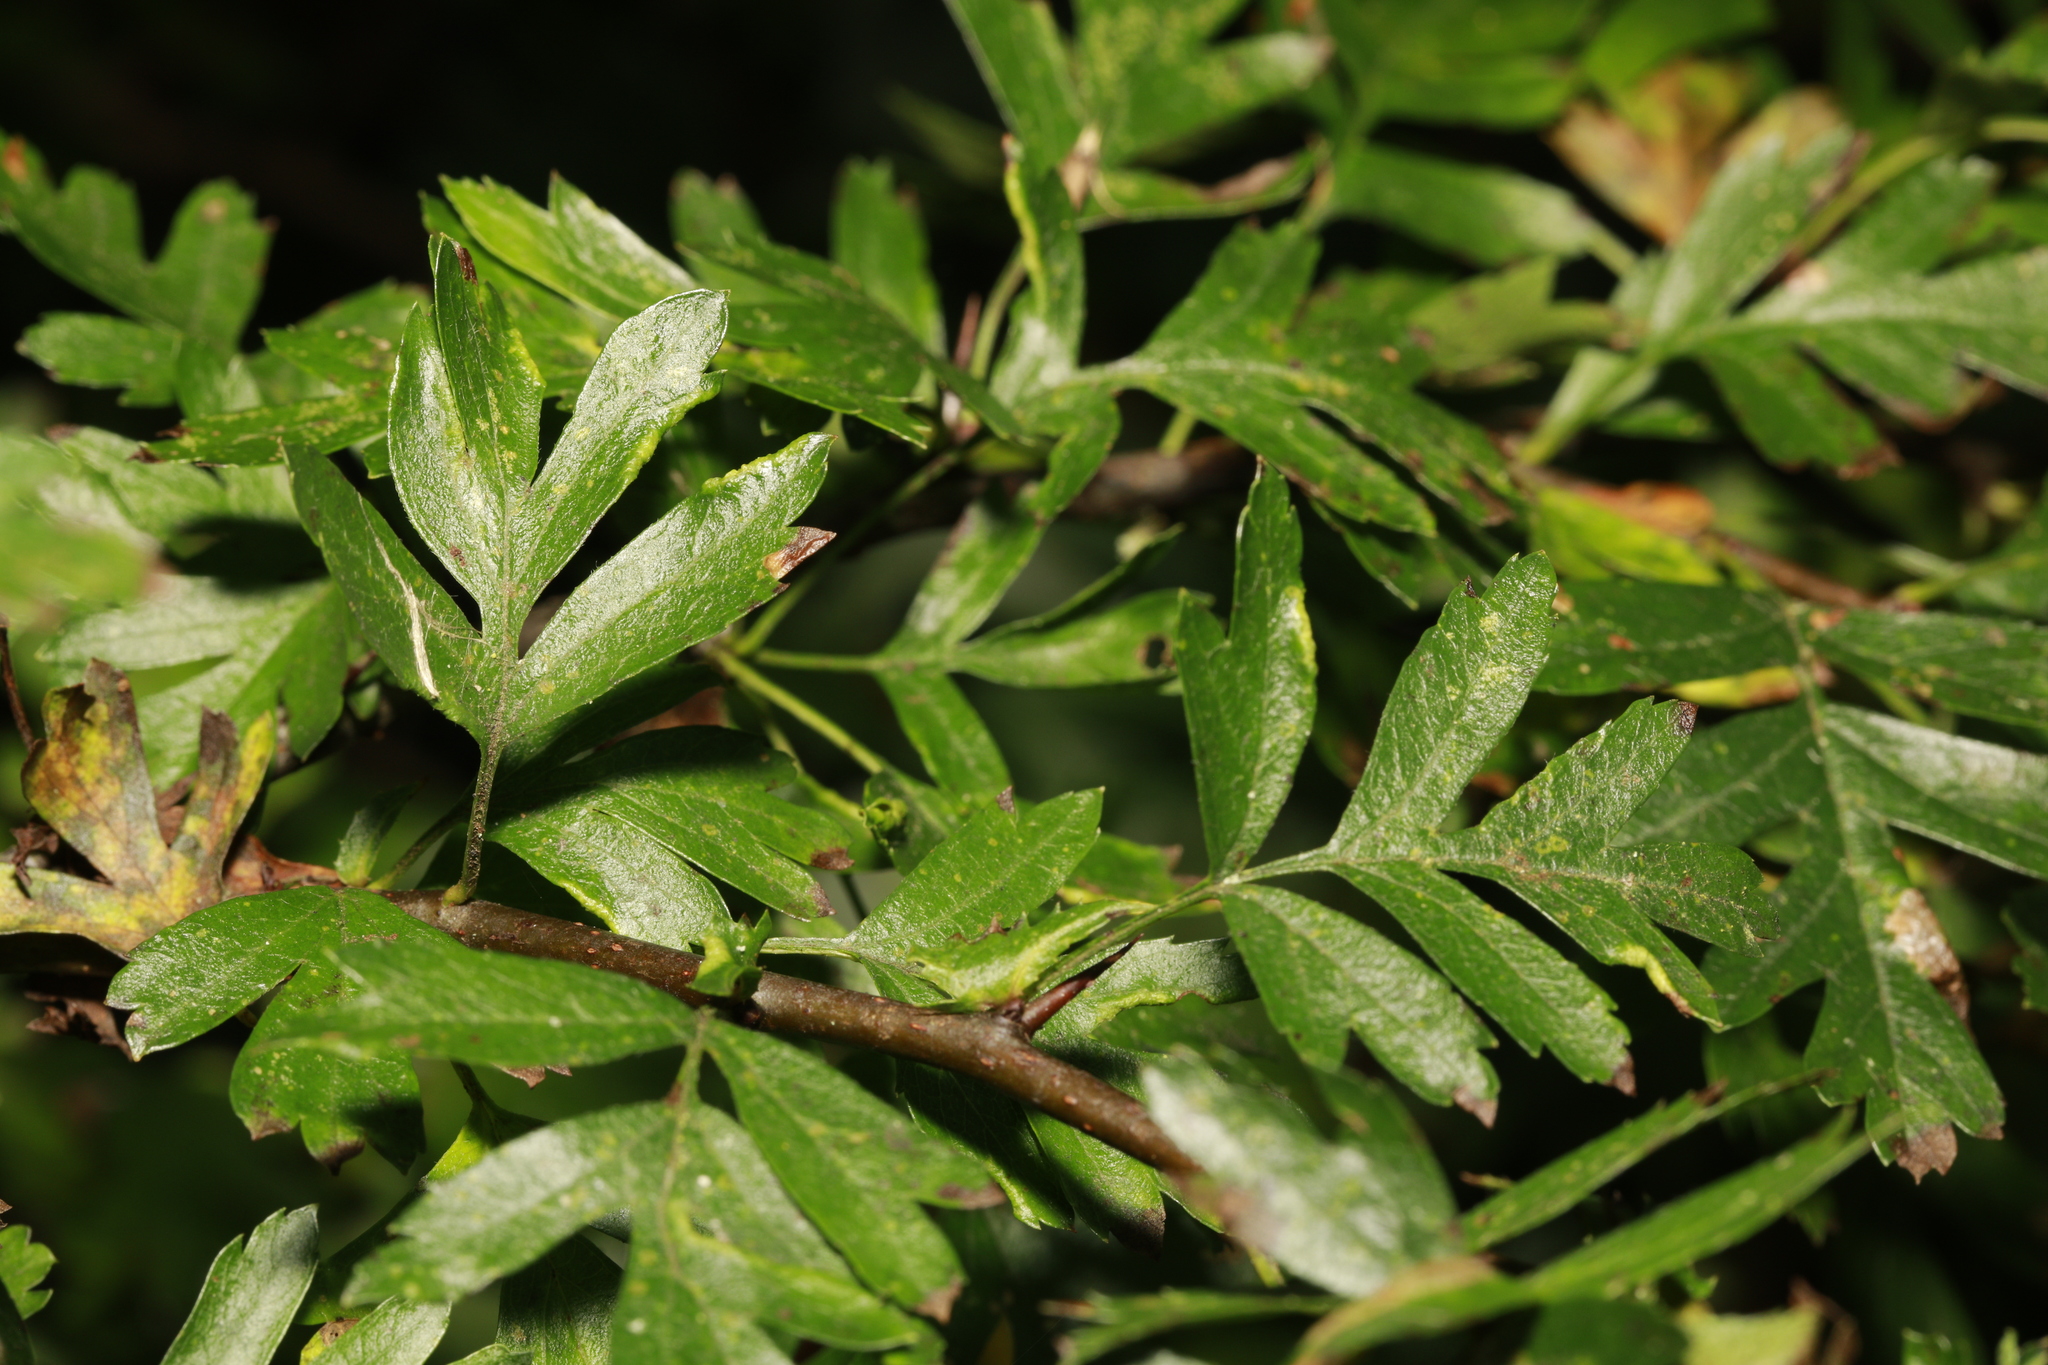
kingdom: Animalia
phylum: Arthropoda
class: Arachnida
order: Trombidiformes
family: Eriophyidae
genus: Phyllocoptes
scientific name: Phyllocoptes goniothorax
